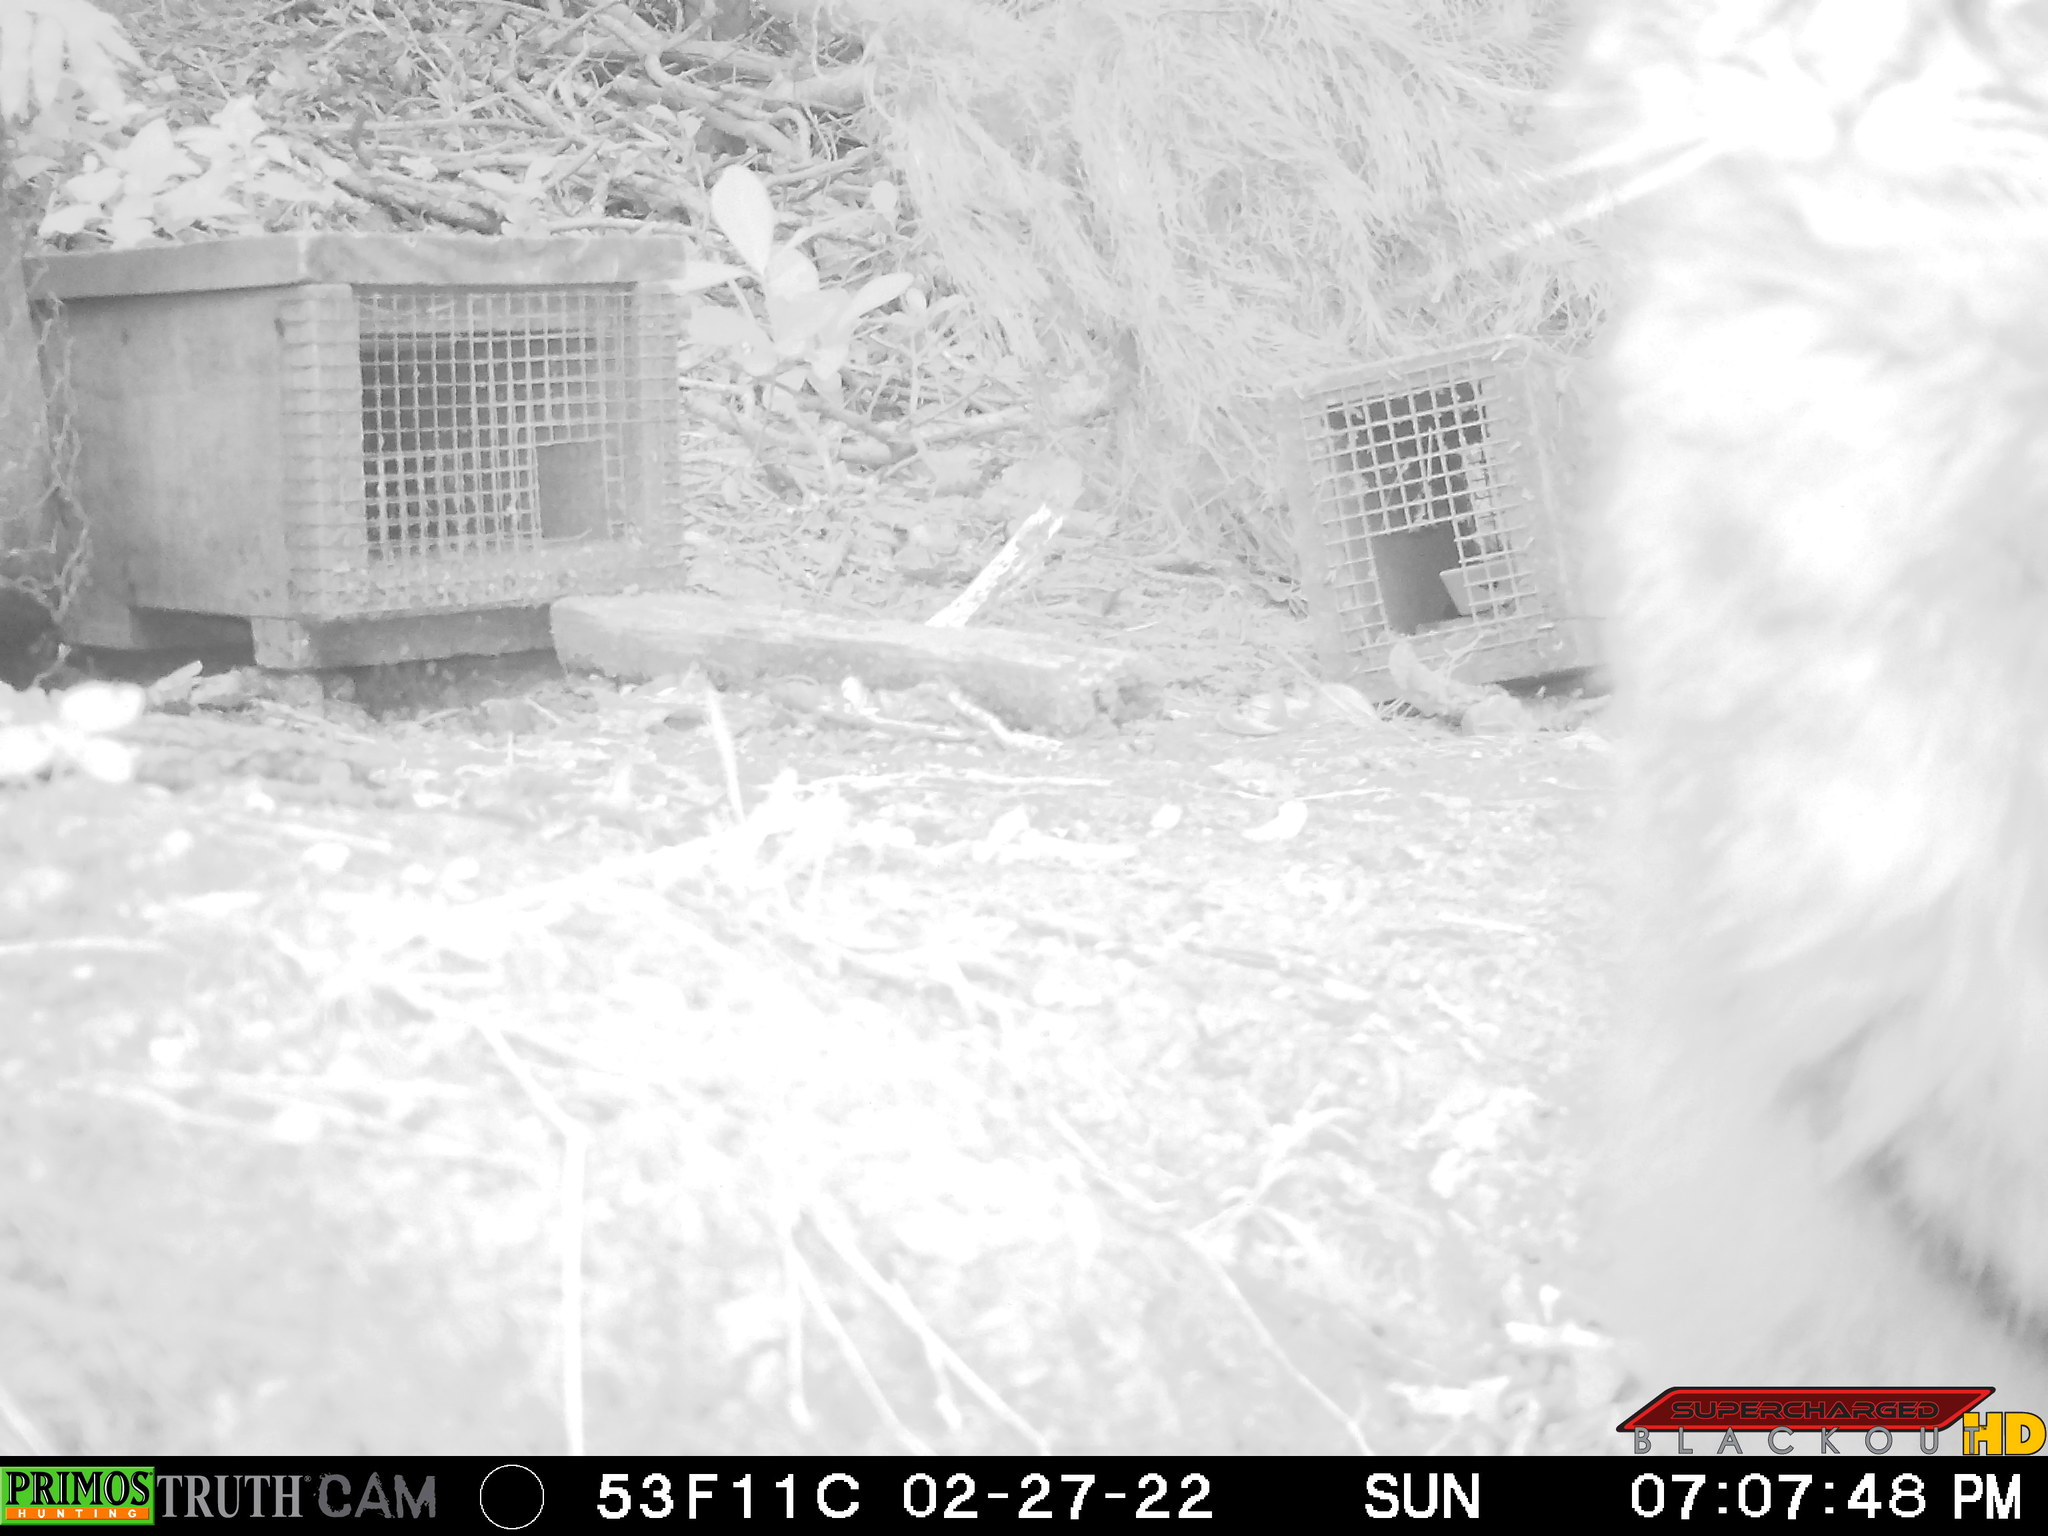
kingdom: Animalia
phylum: Chordata
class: Mammalia
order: Carnivora
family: Felidae
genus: Felis
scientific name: Felis catus
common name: Domestic cat
